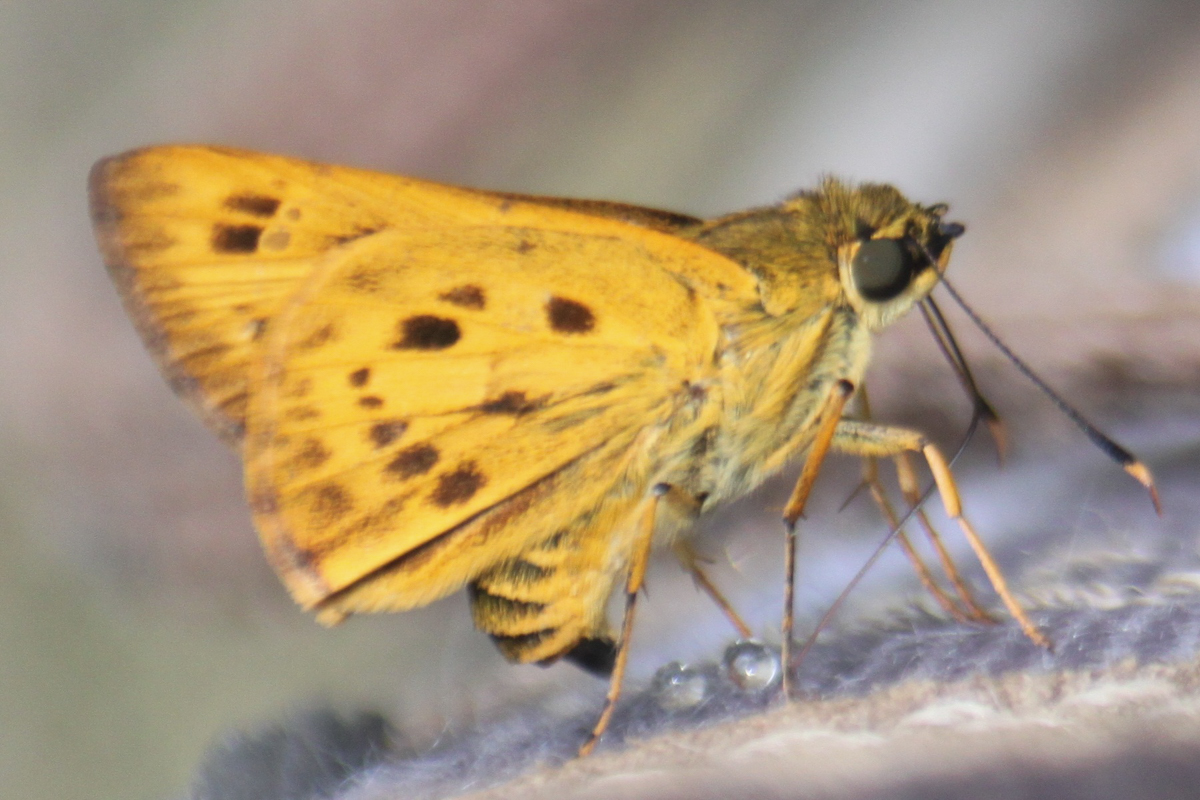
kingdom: Animalia
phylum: Arthropoda
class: Insecta
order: Lepidoptera
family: Hesperiidae
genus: Thoressa
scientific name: Thoressa masoni
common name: Golden ace
